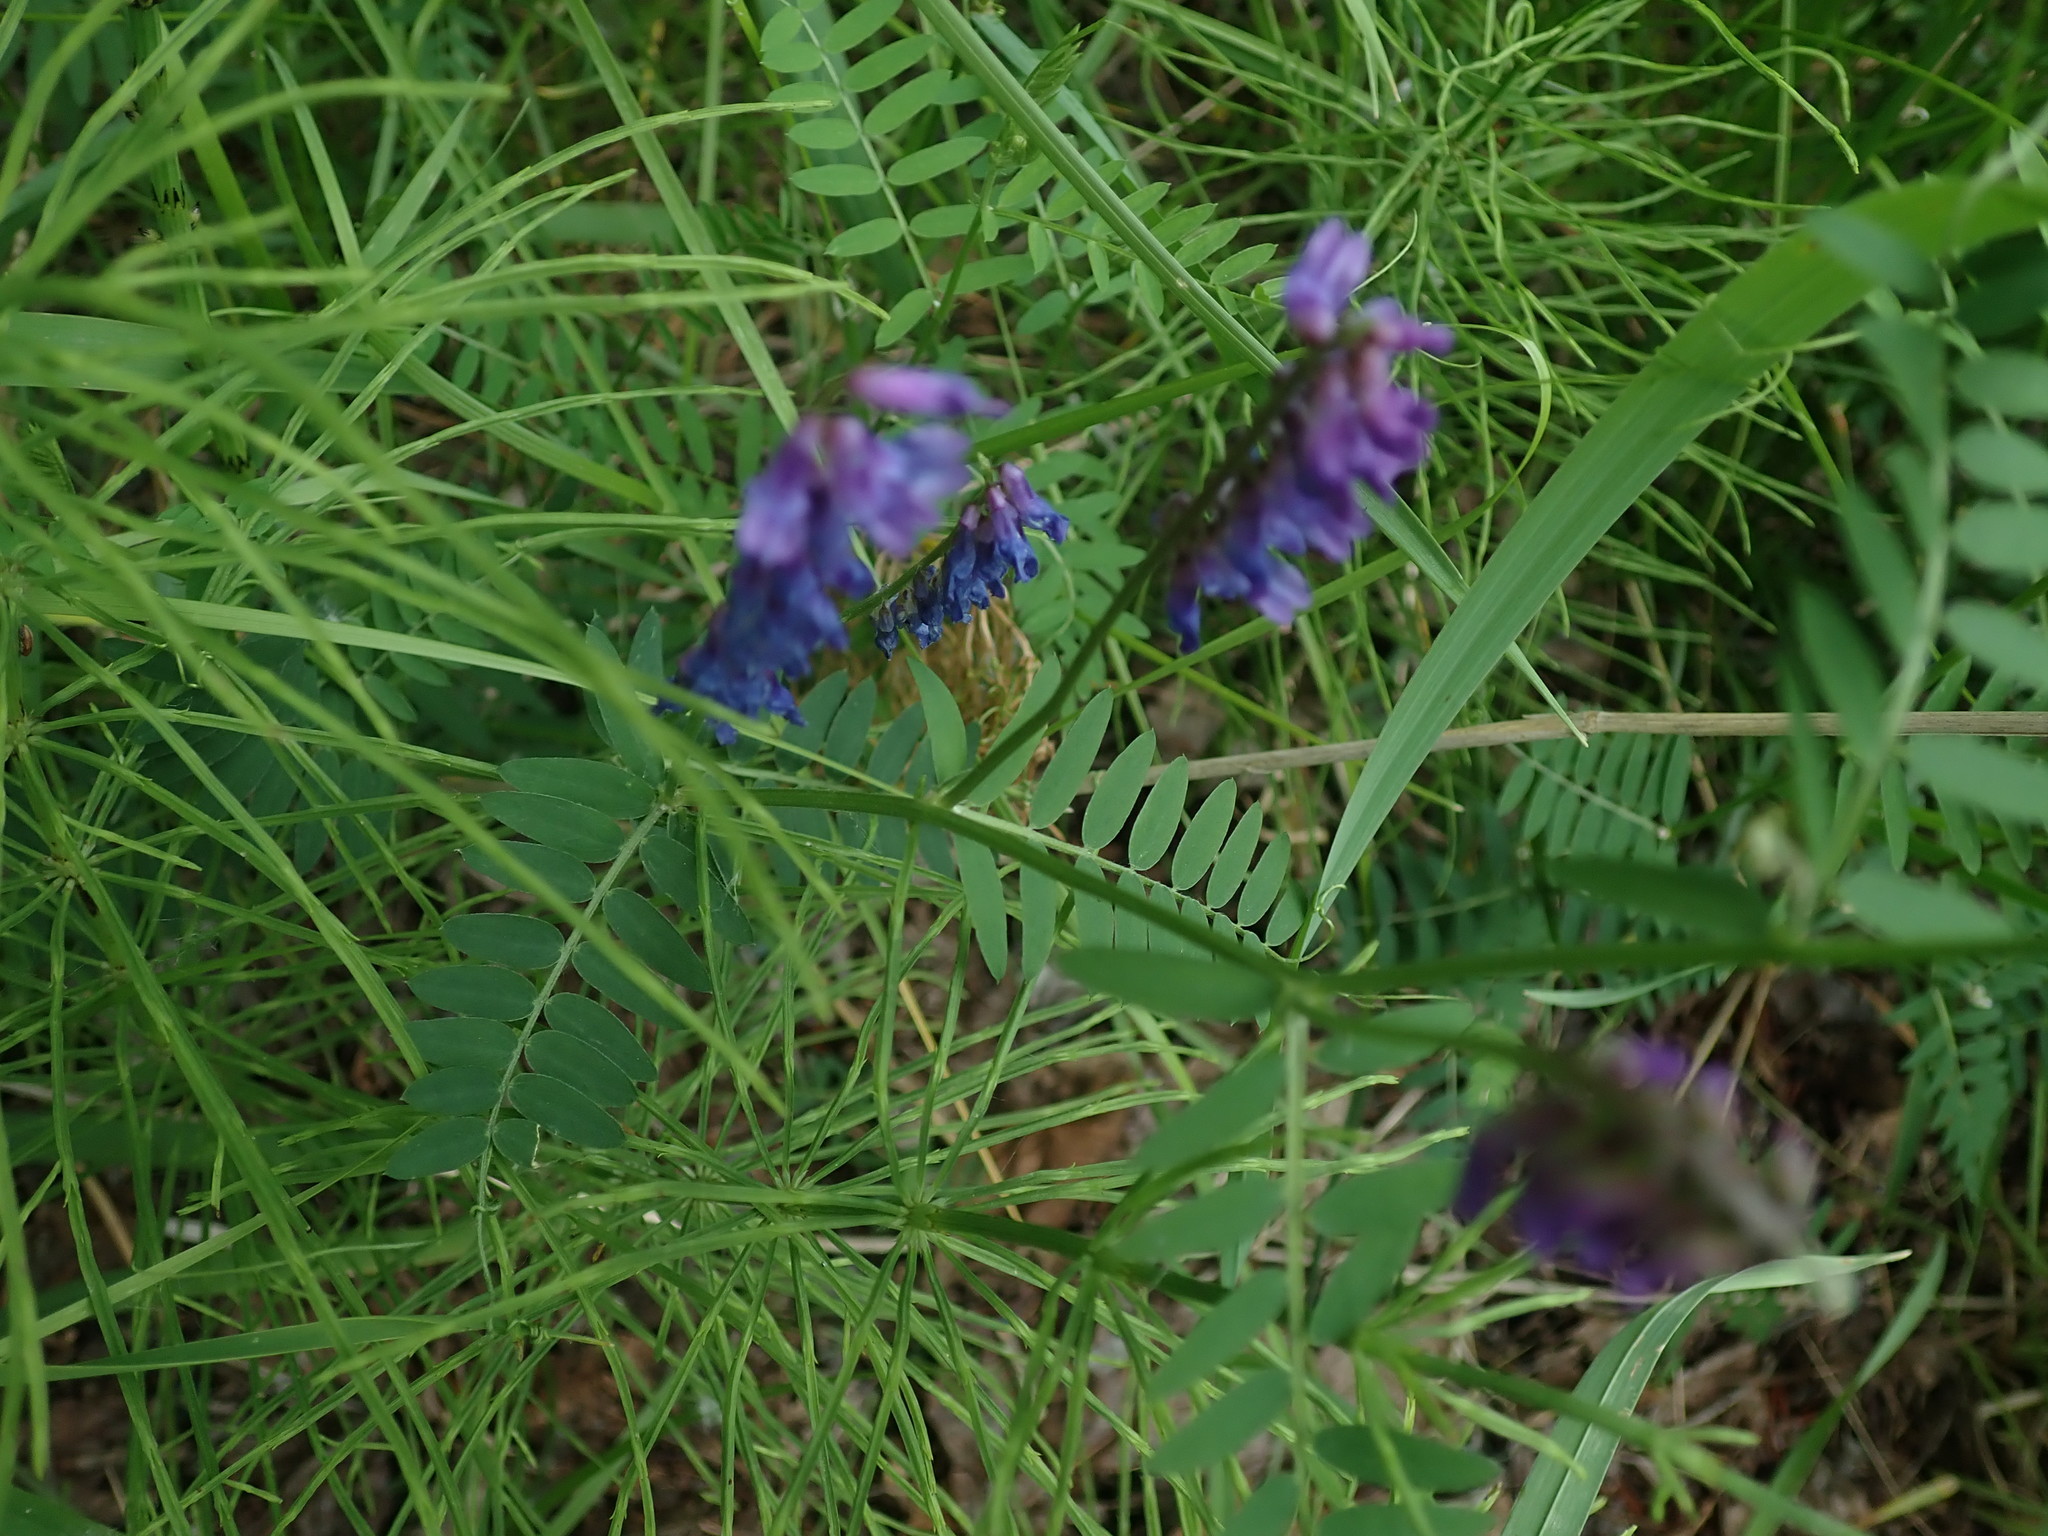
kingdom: Plantae
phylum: Tracheophyta
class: Magnoliopsida
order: Fabales
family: Fabaceae
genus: Vicia
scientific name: Vicia cracca
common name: Bird vetch
